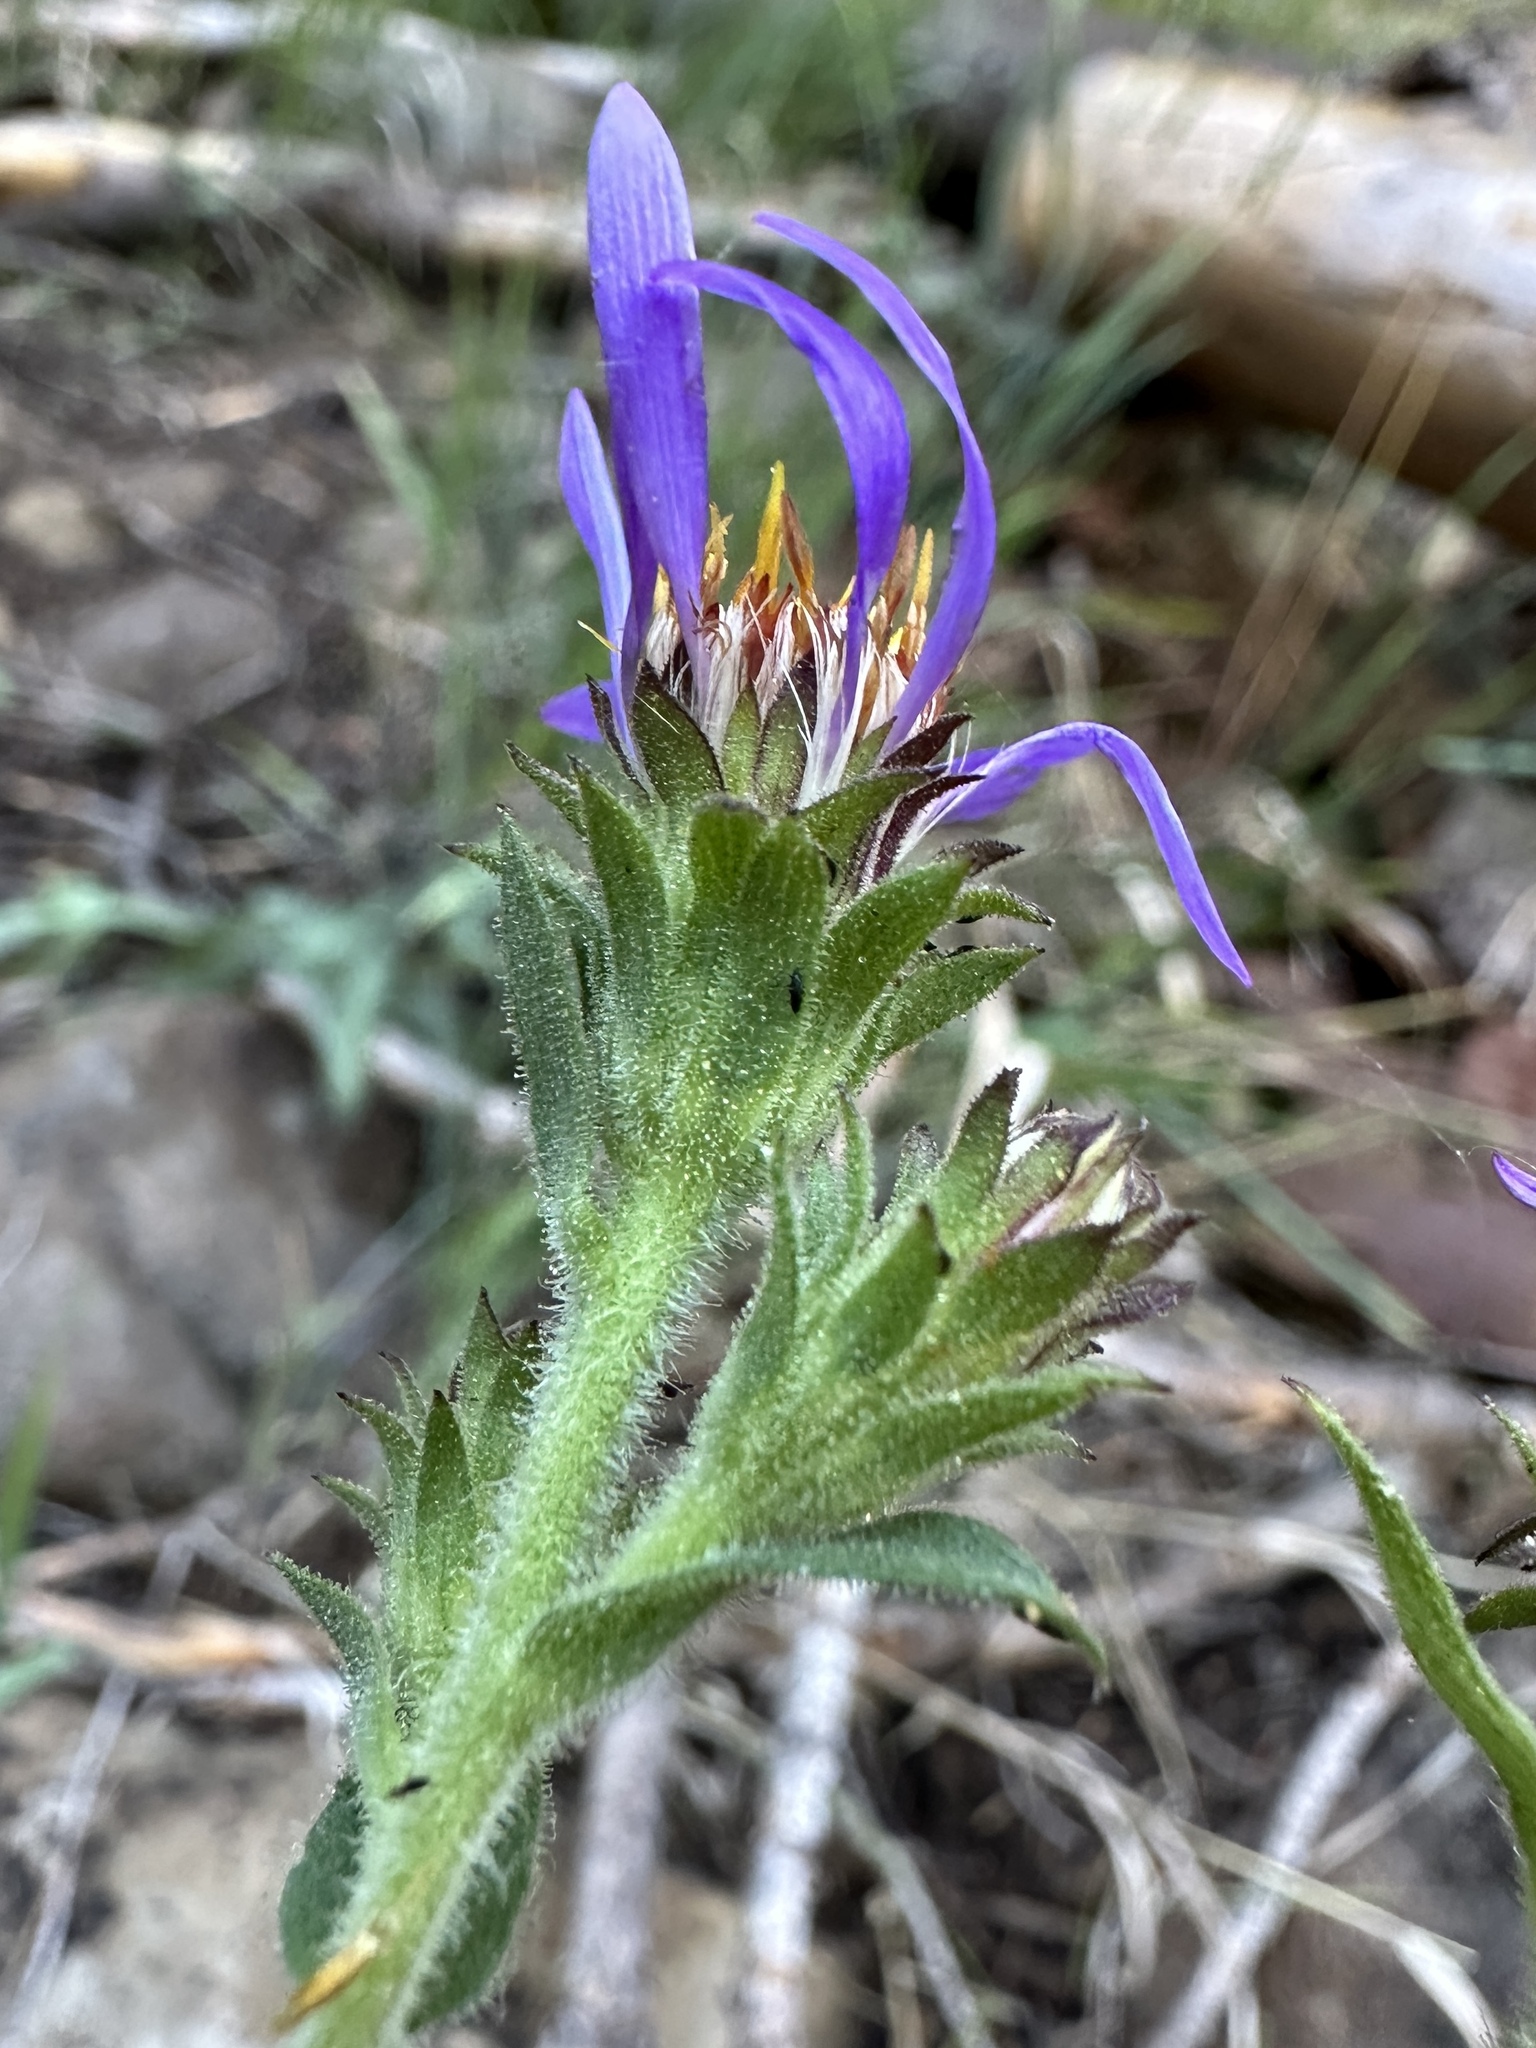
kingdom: Plantae
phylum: Tracheophyta
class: Magnoliopsida
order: Asterales
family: Asteraceae
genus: Eurybia
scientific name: Eurybia integrifolia
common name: Thick-stem aster
